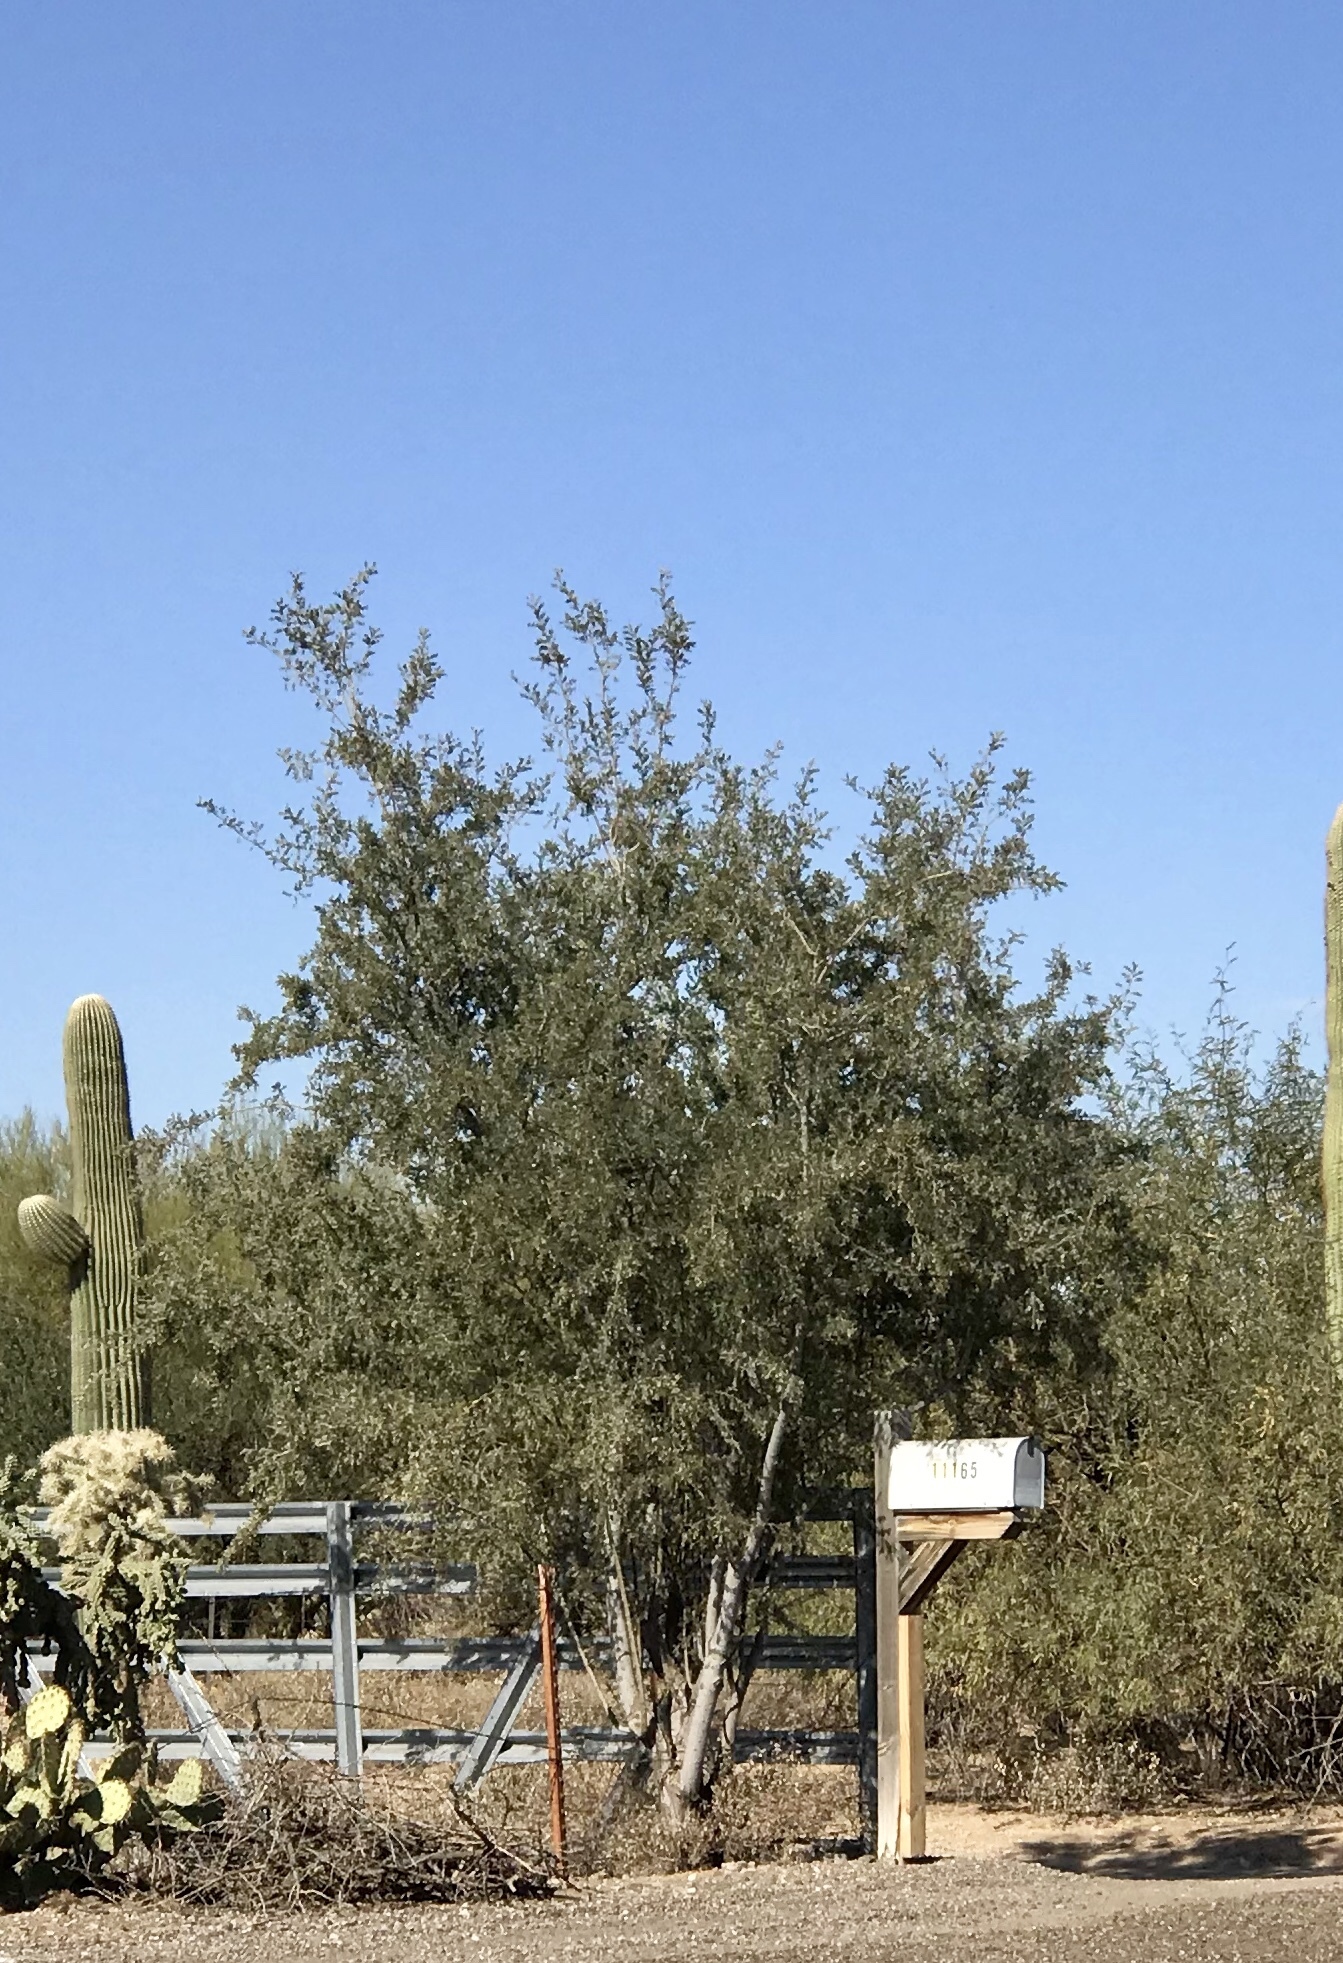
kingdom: Plantae
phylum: Tracheophyta
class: Magnoliopsida
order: Fabales
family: Fabaceae
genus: Olneya
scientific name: Olneya tesota
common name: Desert ironwood
